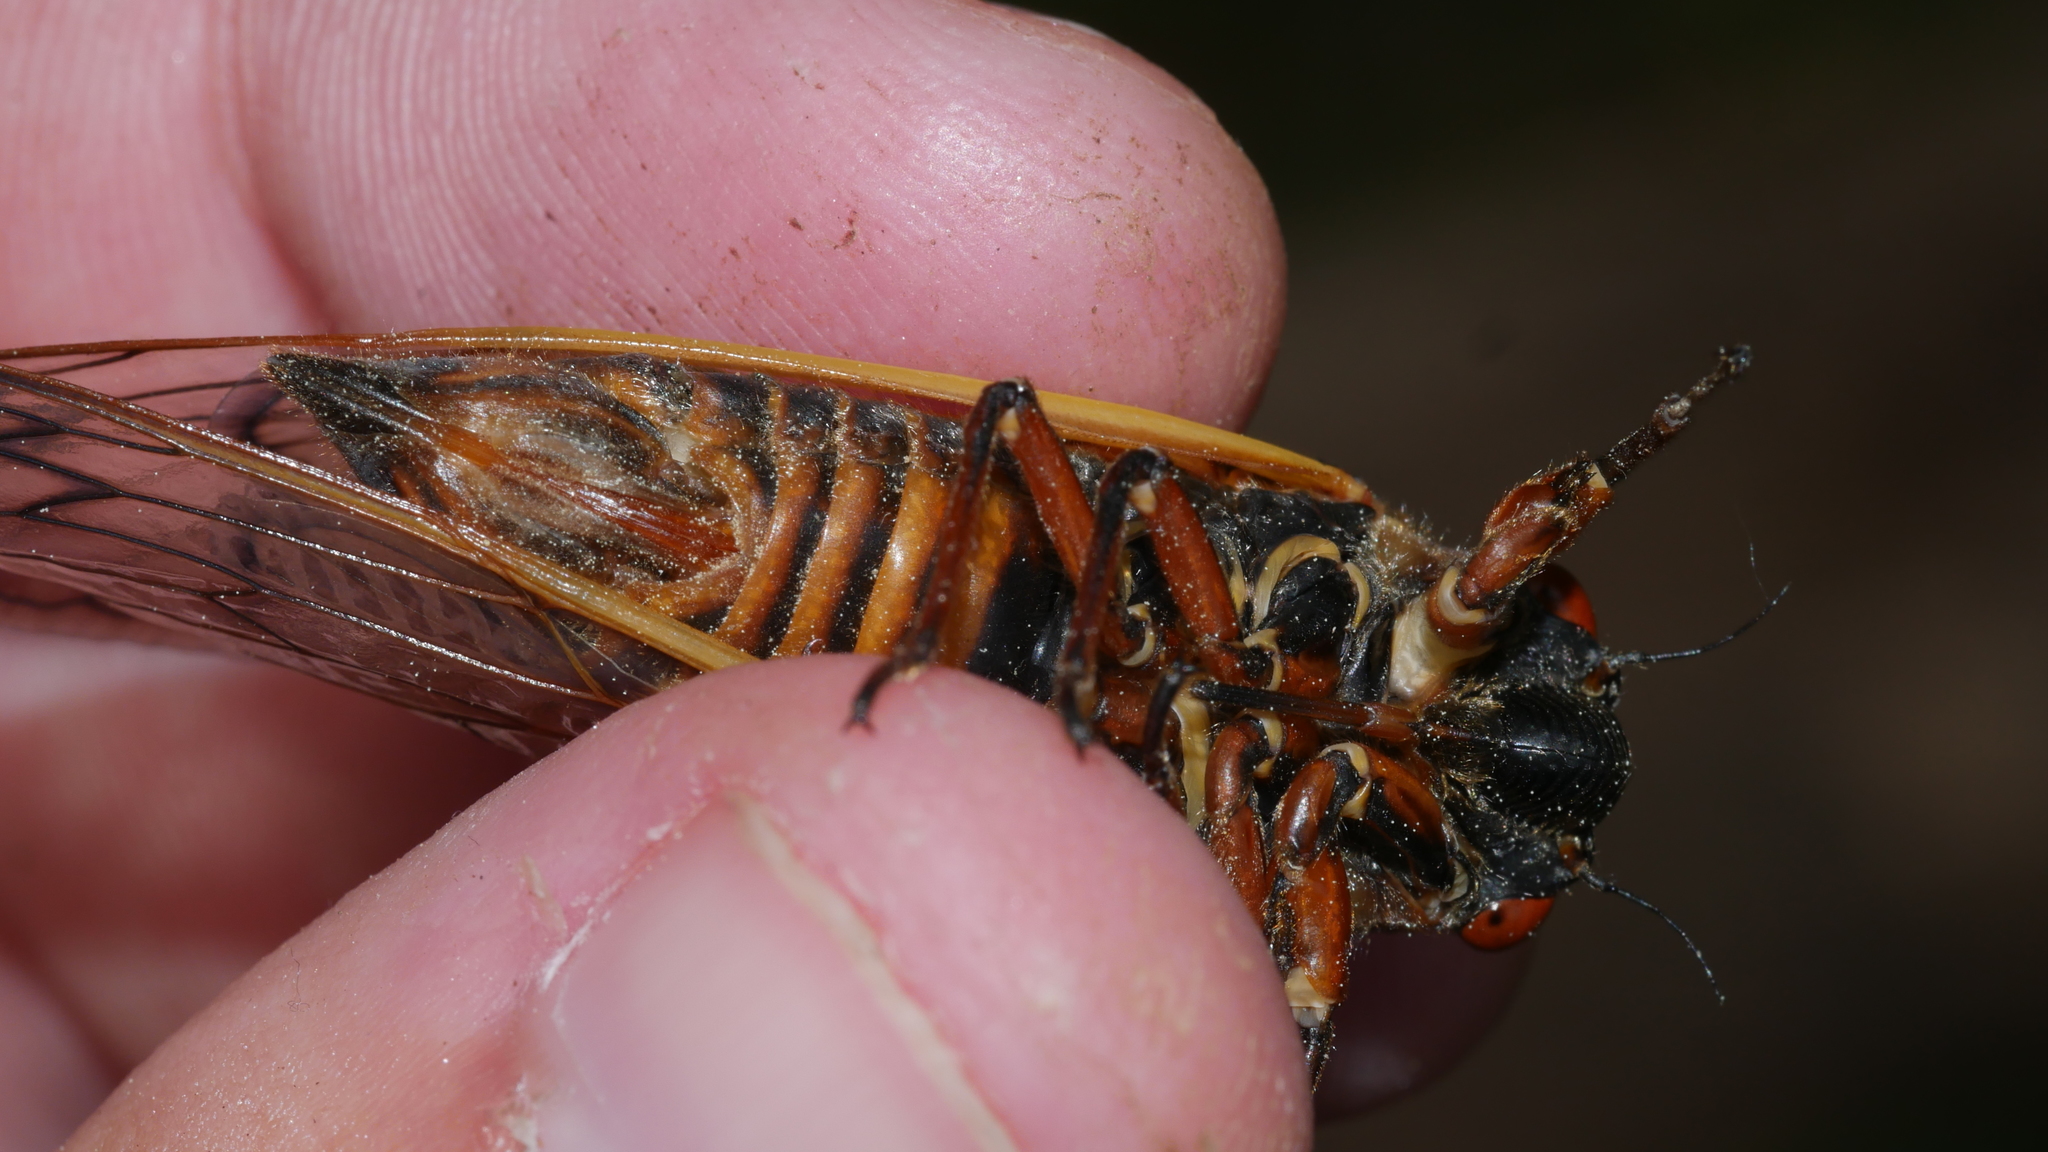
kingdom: Animalia
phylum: Arthropoda
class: Insecta
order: Hemiptera
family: Cicadidae
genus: Magicicada
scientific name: Magicicada septendecim
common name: Periodical cicada
